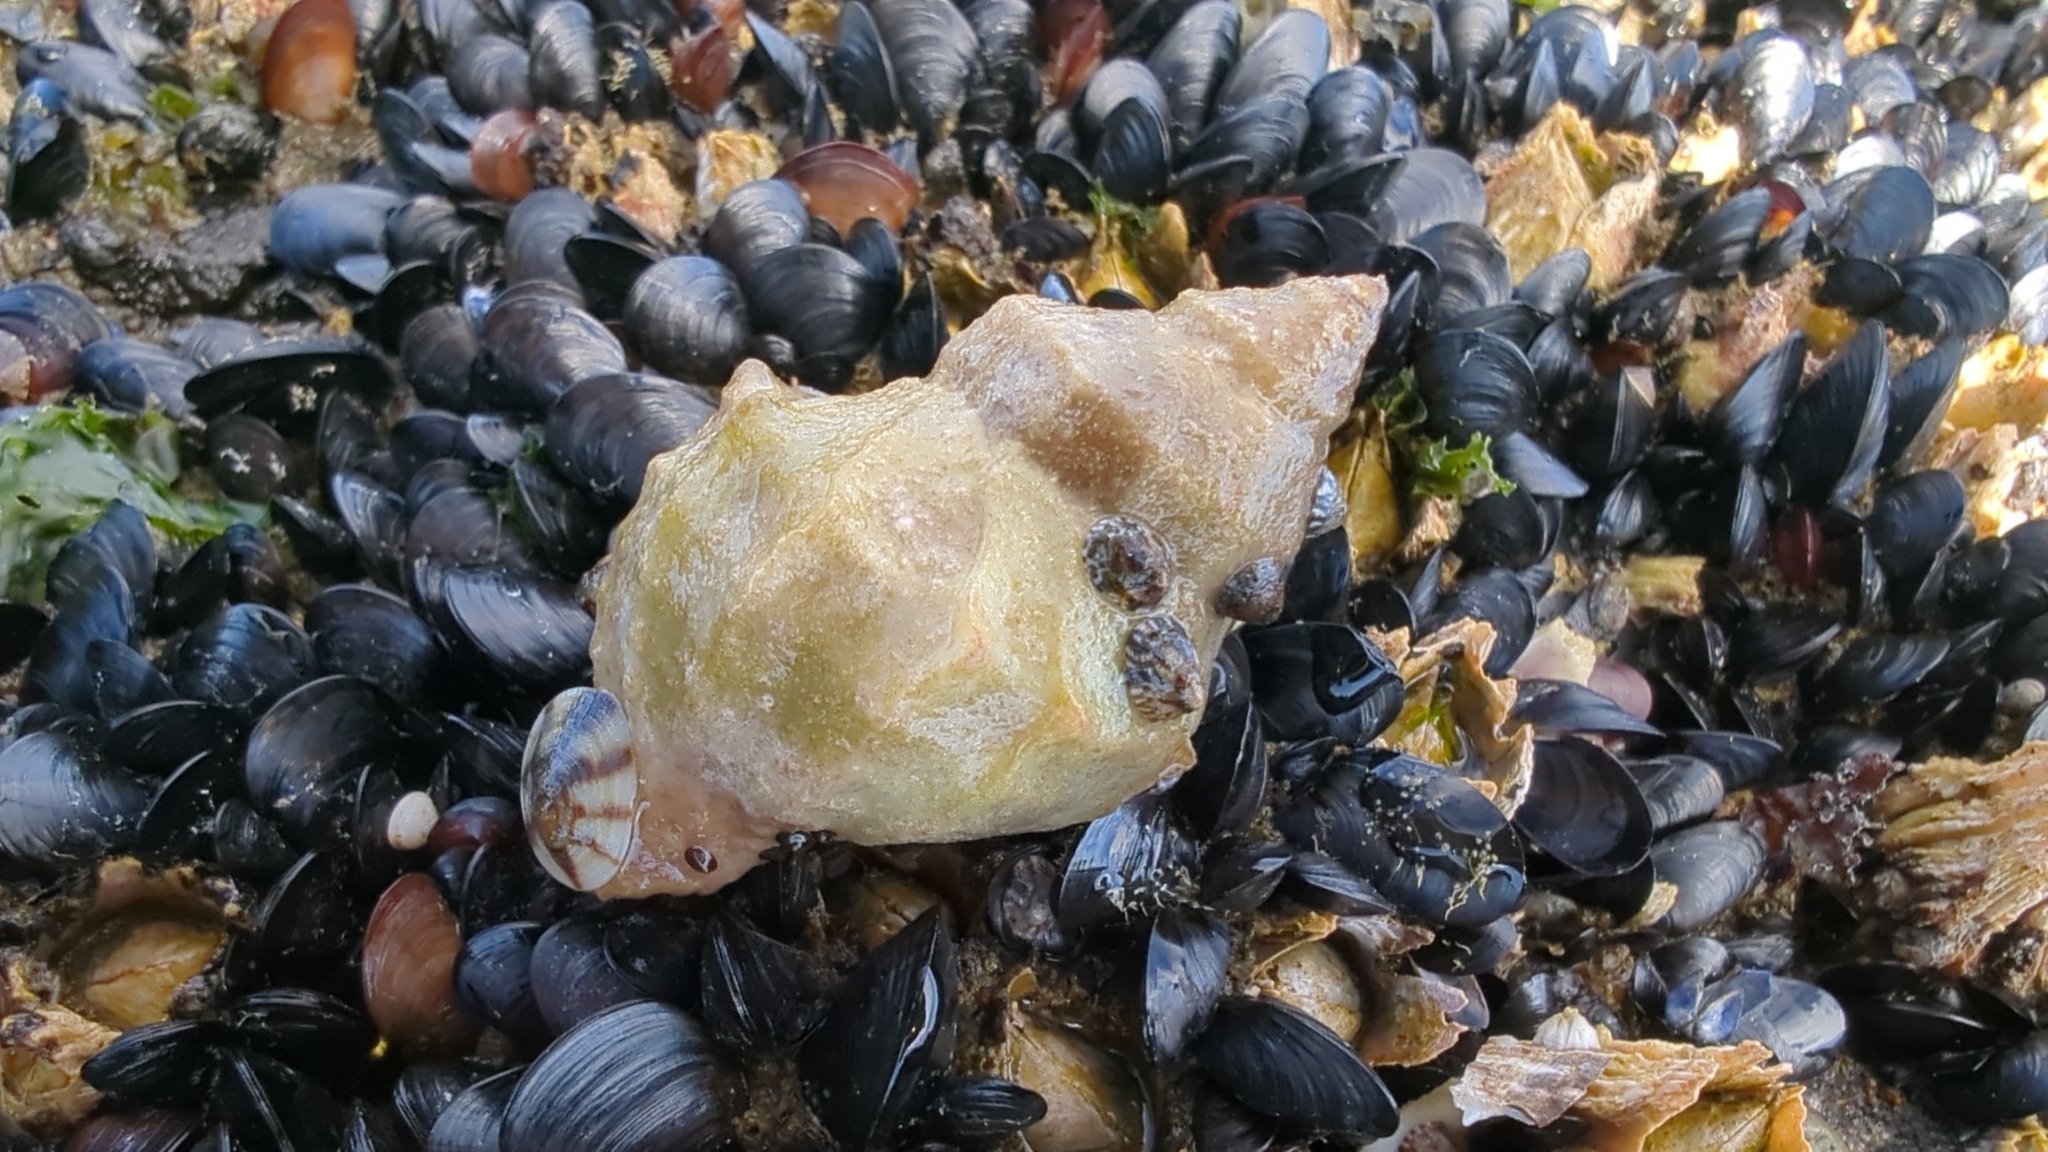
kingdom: Animalia
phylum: Mollusca
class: Gastropoda
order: Neogastropoda
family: Muricidae
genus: Nucella
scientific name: Nucella lamellosa
